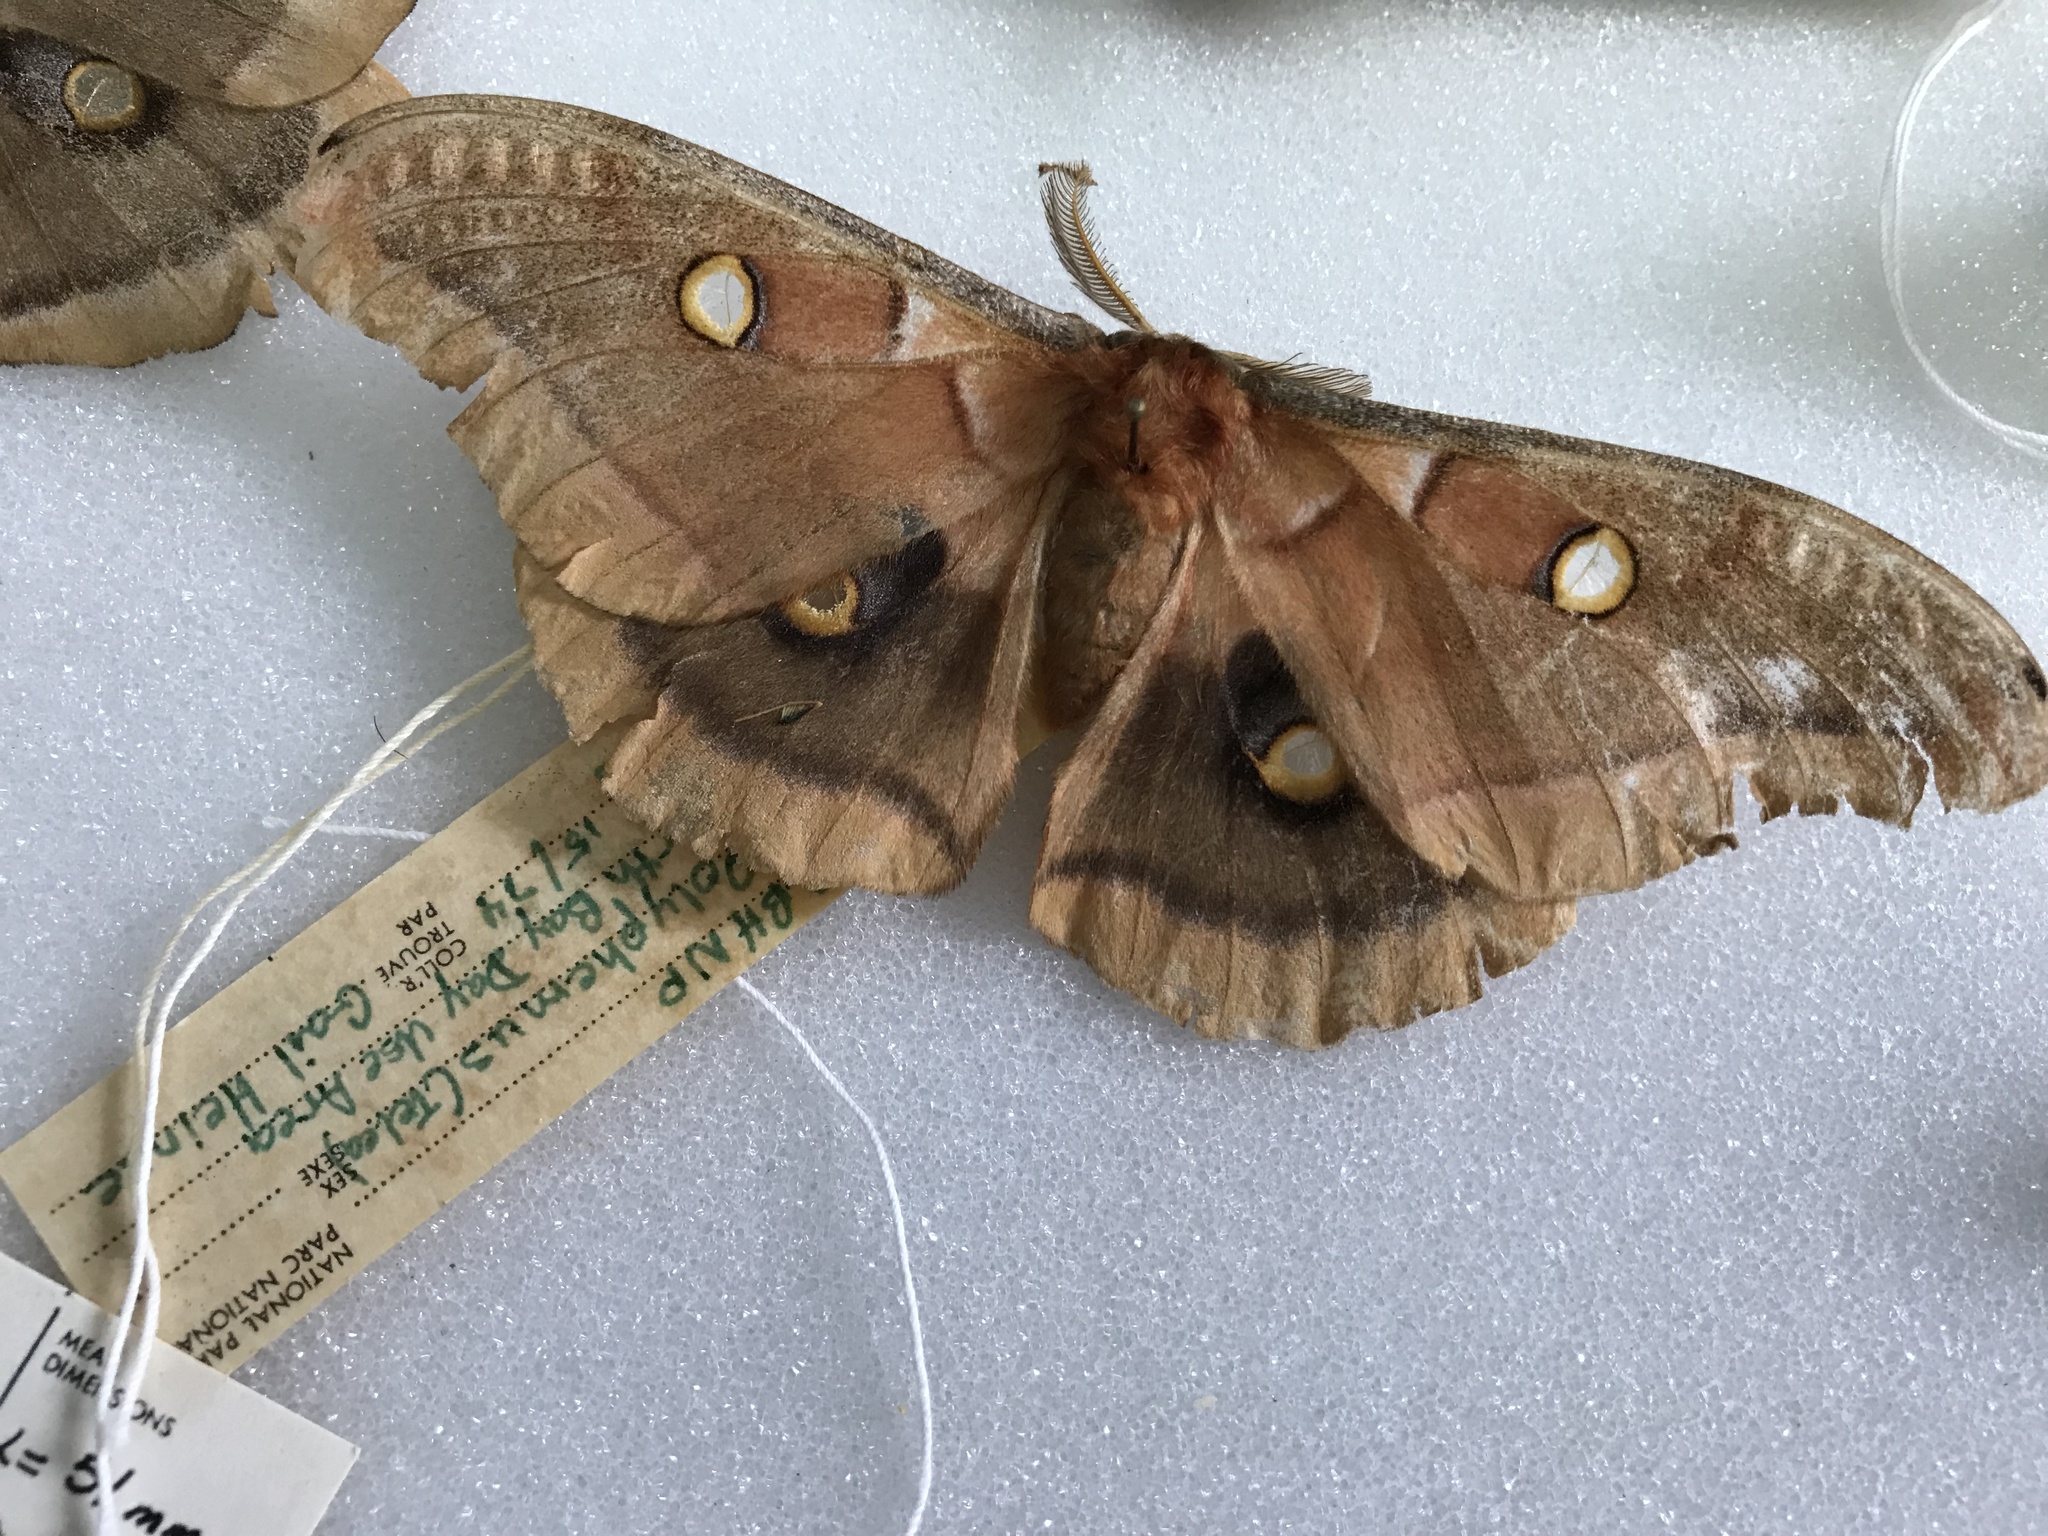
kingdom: Animalia
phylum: Arthropoda
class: Insecta
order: Lepidoptera
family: Saturniidae
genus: Antheraea
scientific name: Antheraea polyphemus
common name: Polyphemus moth
